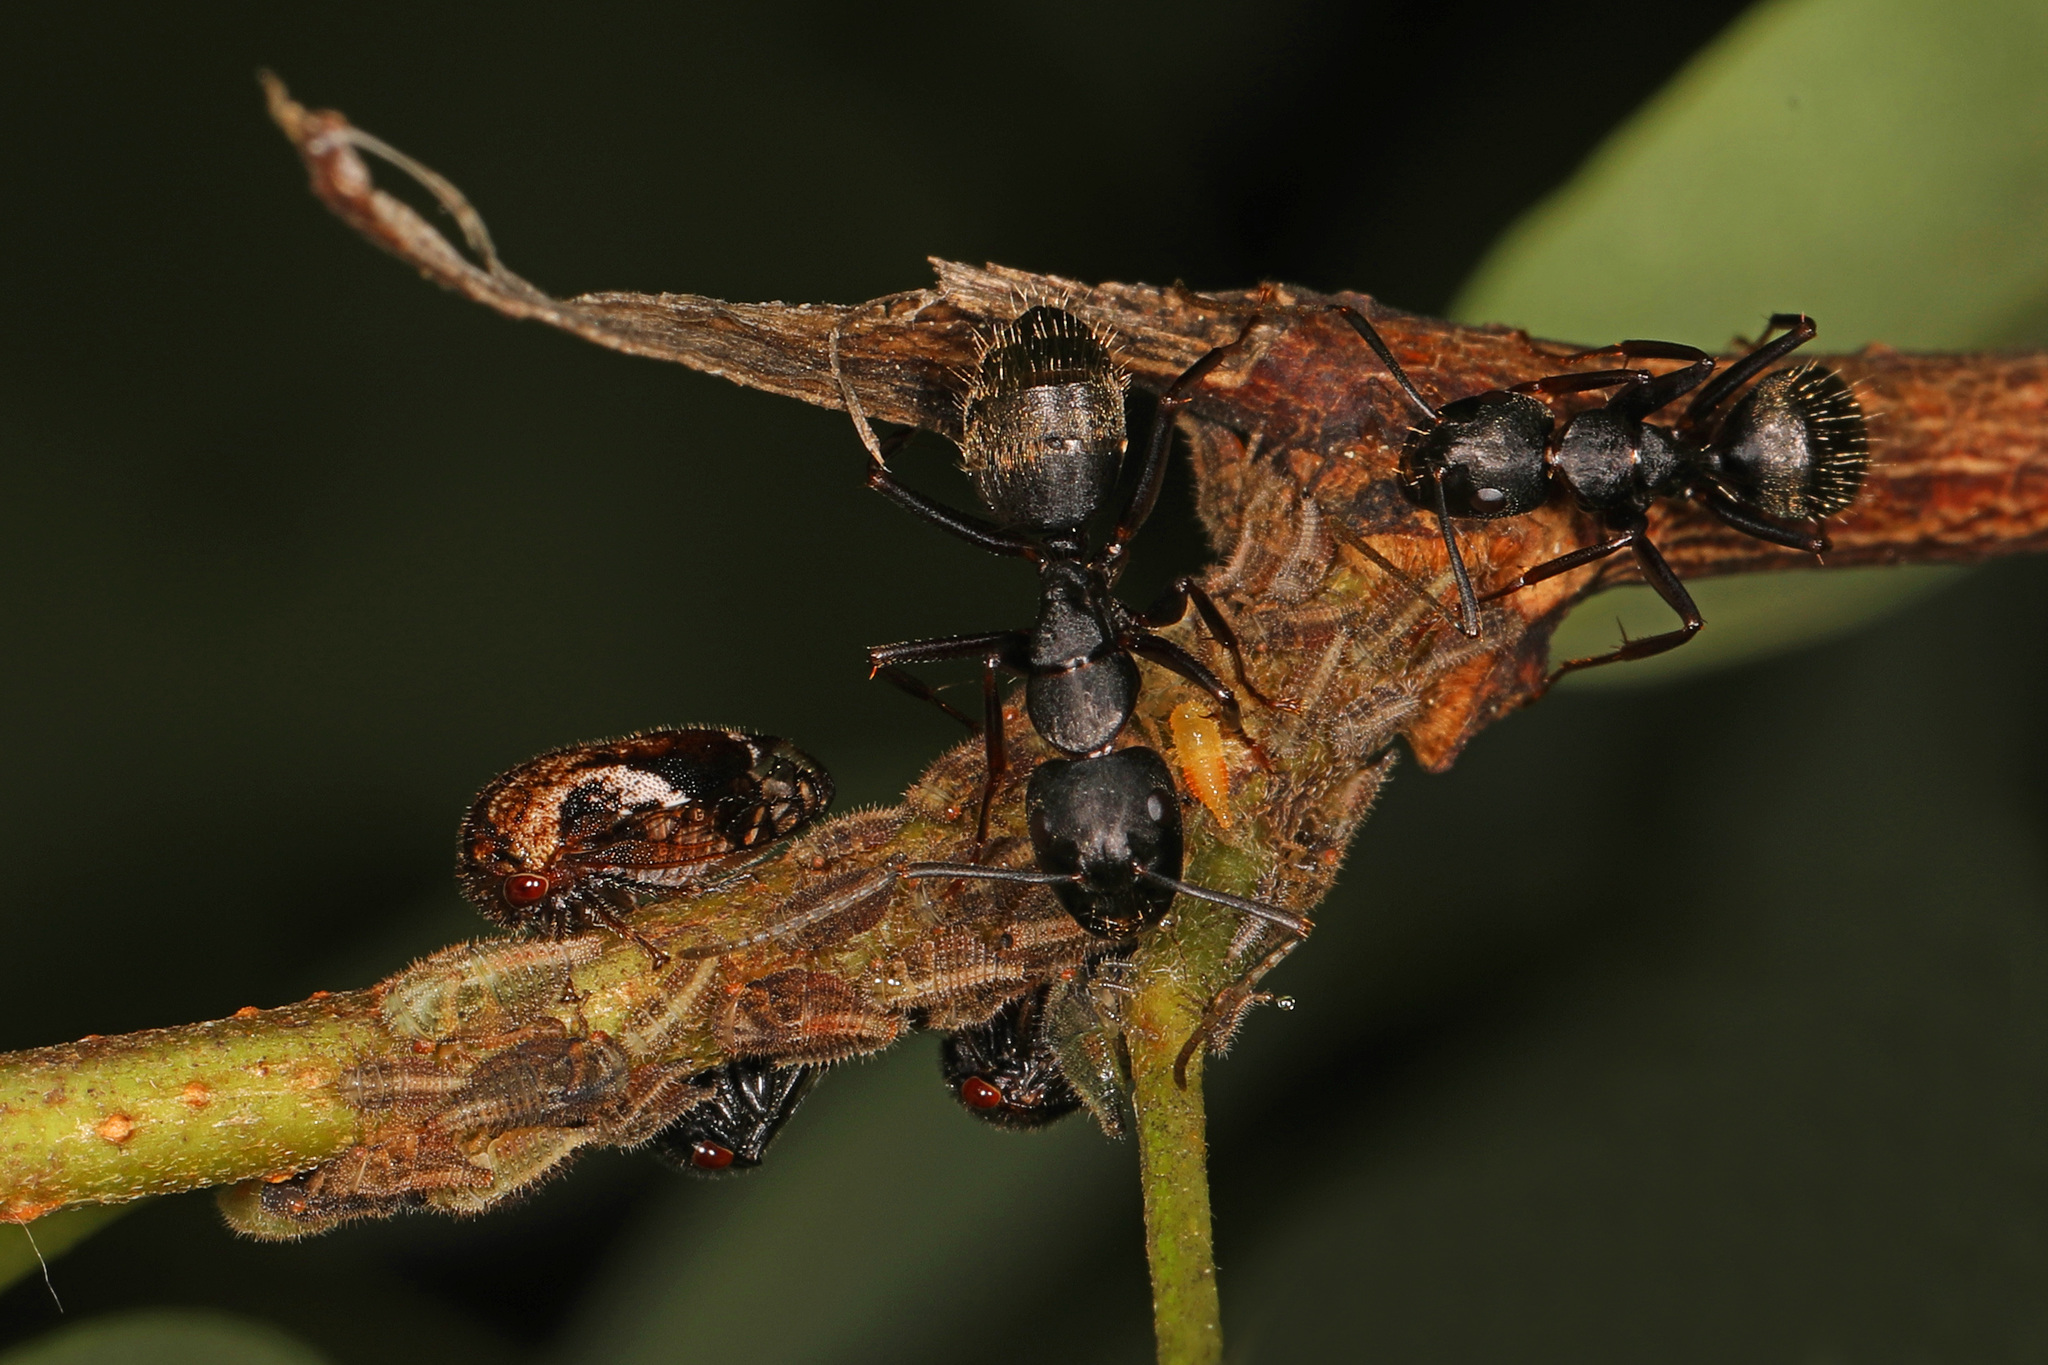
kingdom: Animalia
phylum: Arthropoda
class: Insecta
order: Hemiptera
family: Membracidae
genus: Vanduzea
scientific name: Vanduzea arquata
